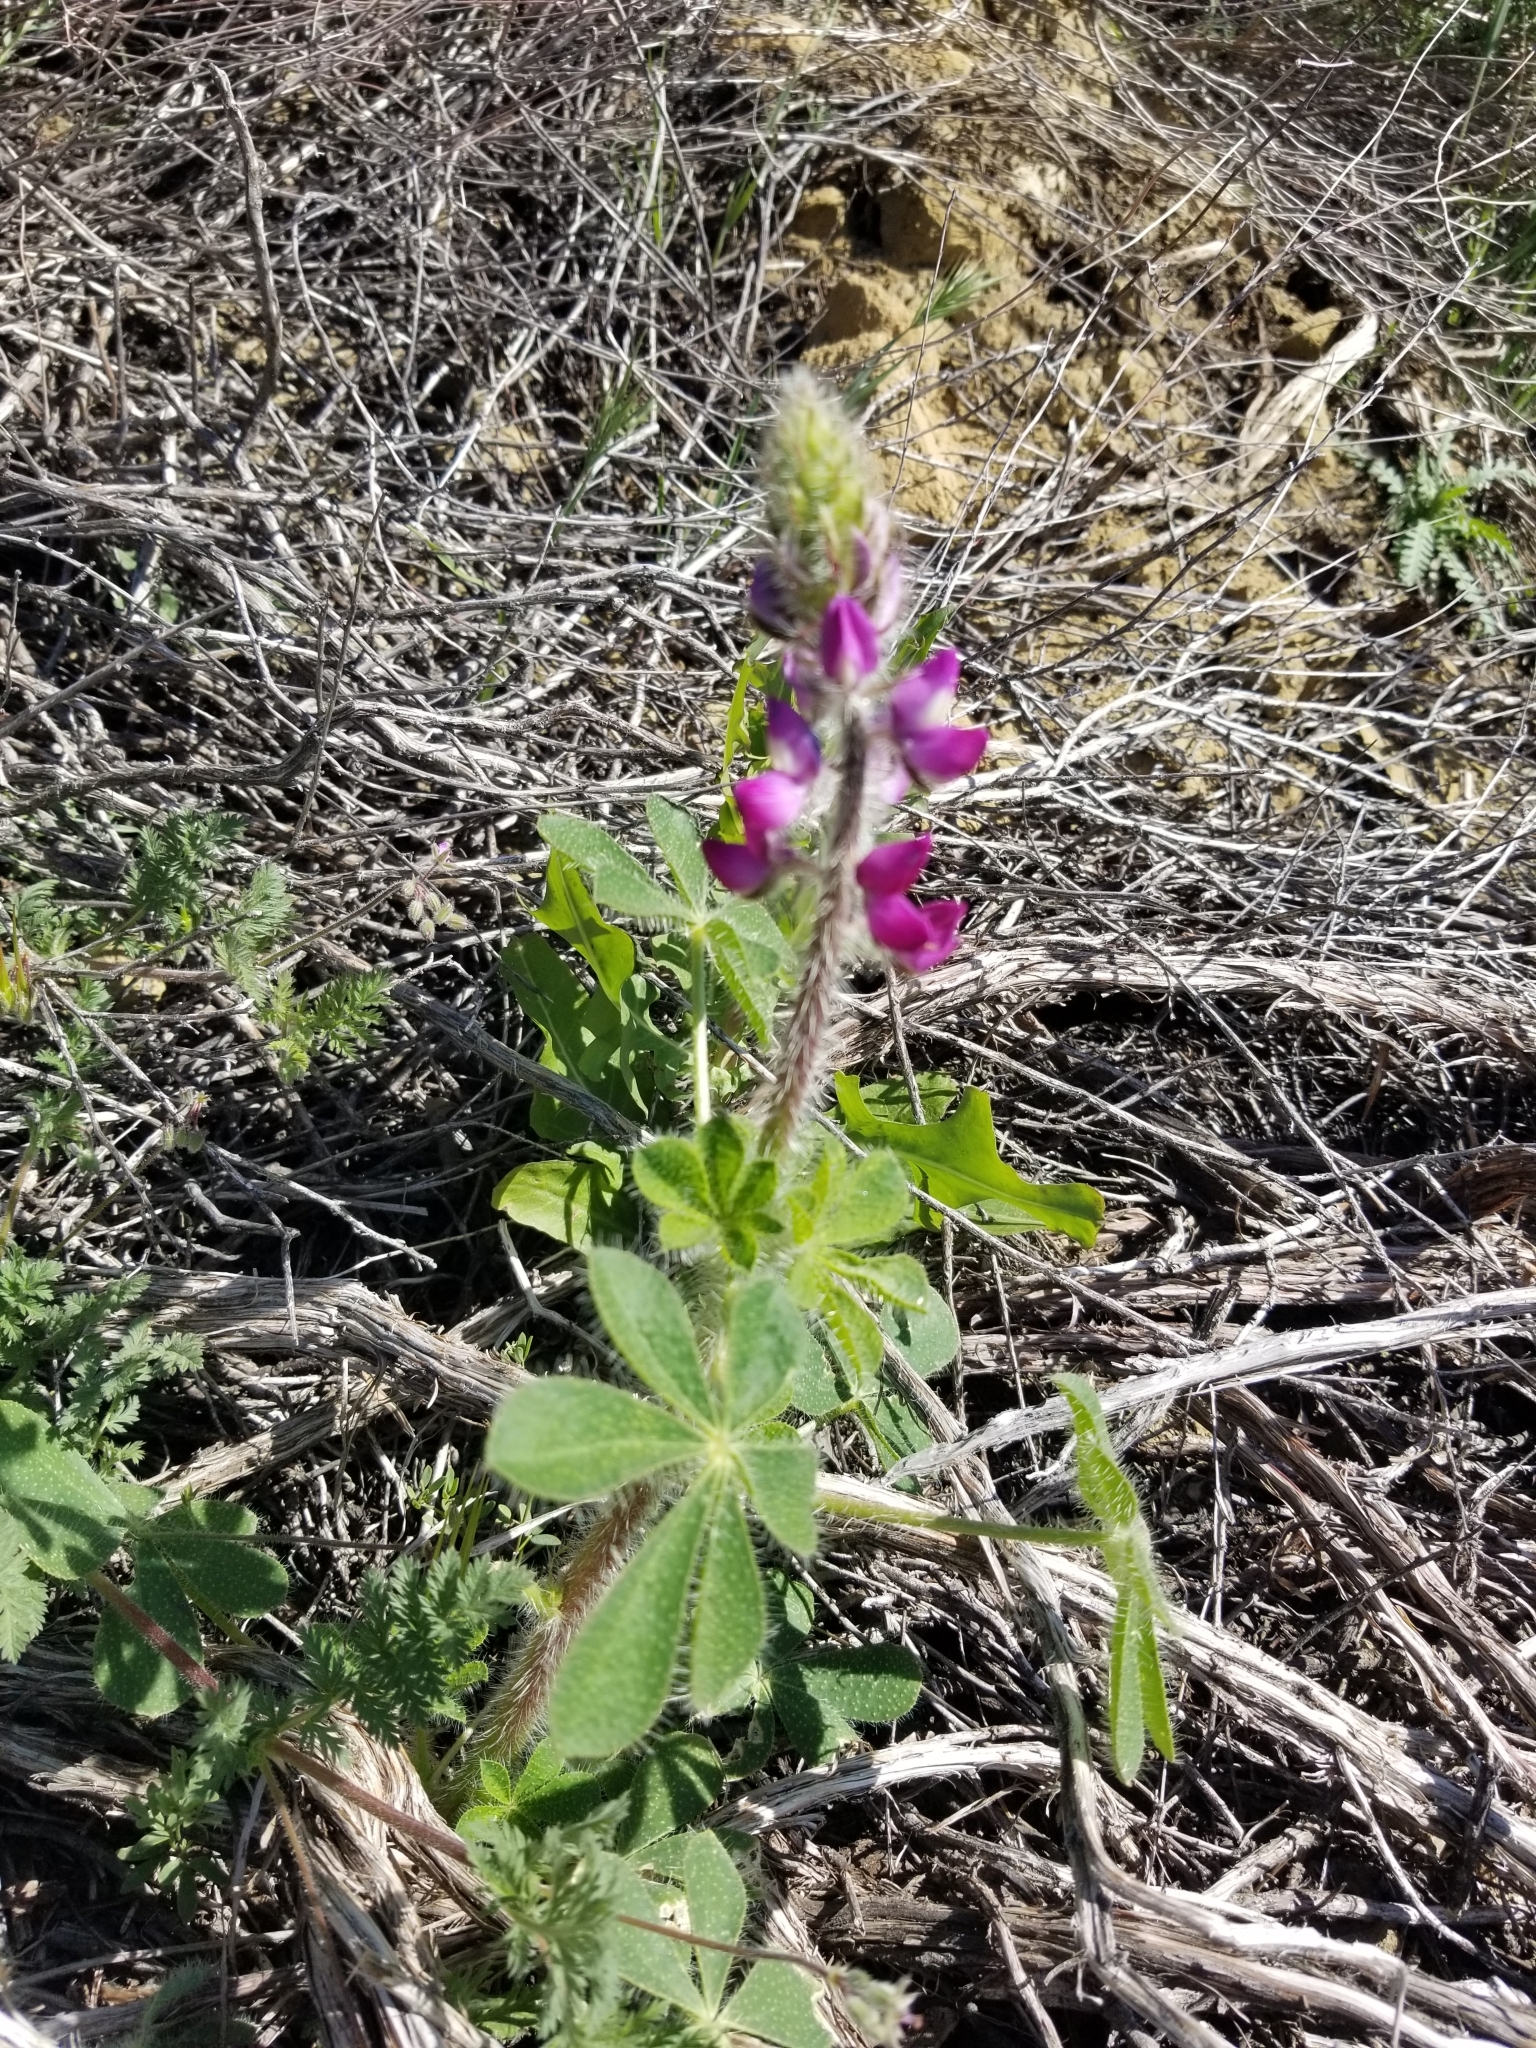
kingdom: Plantae
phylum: Tracheophyta
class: Magnoliopsida
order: Fabales
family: Fabaceae
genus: Lupinus
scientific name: Lupinus hirsutissimus
